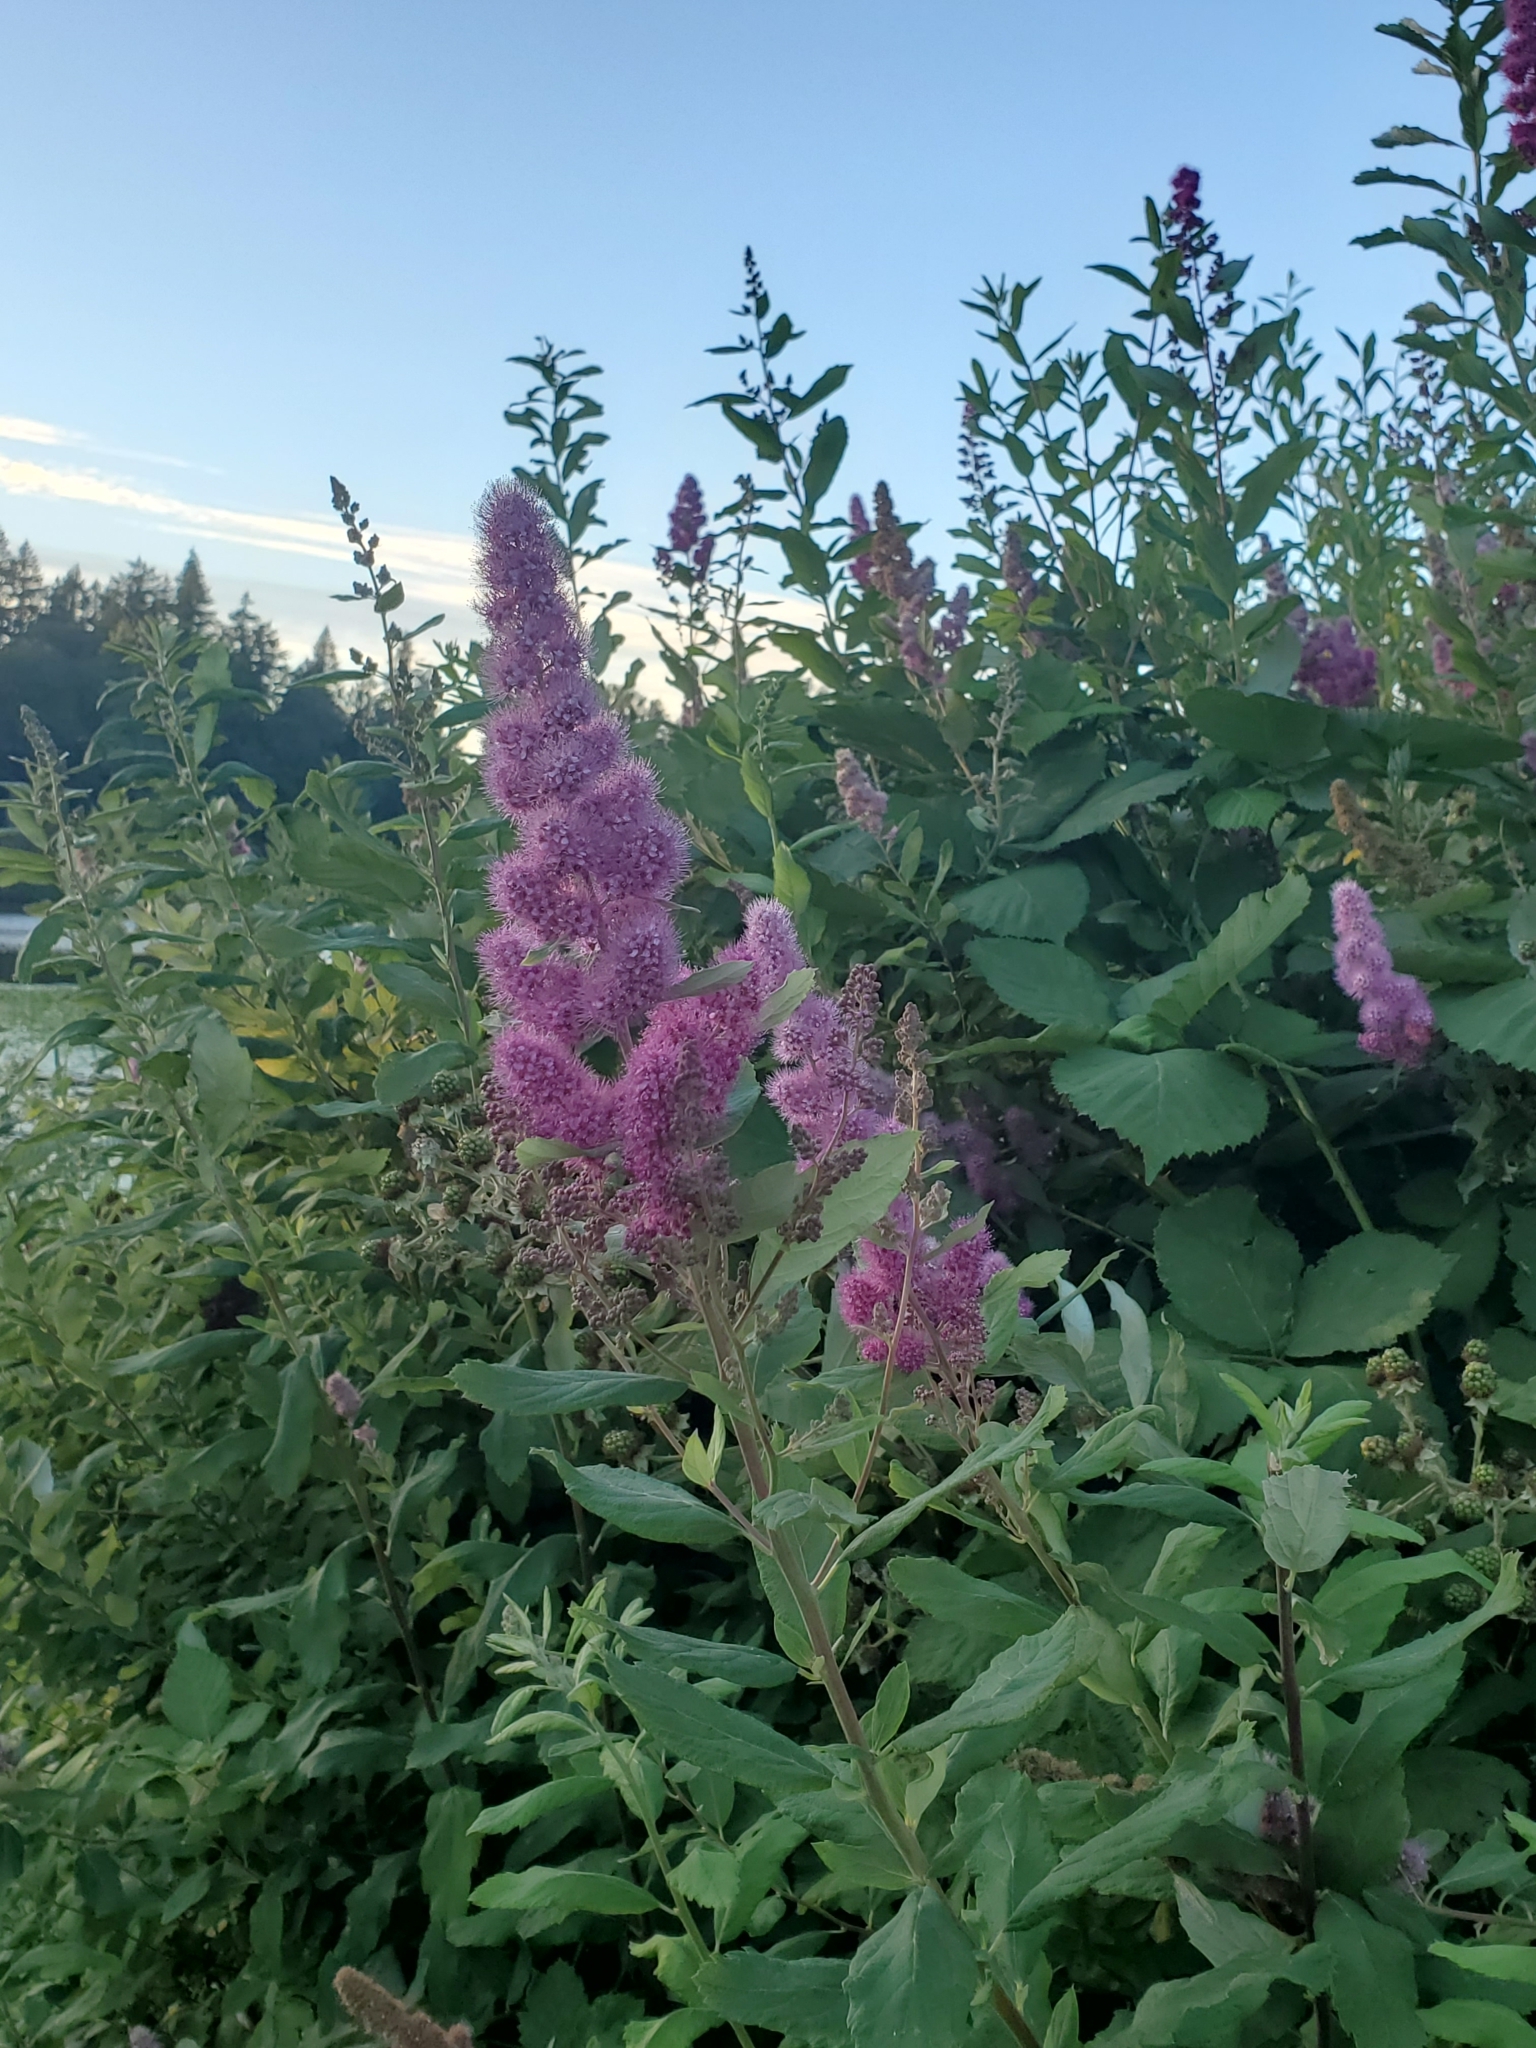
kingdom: Plantae
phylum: Tracheophyta
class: Magnoliopsida
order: Rosales
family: Rosaceae
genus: Spiraea
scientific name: Spiraea douglasii
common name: Steeplebush
